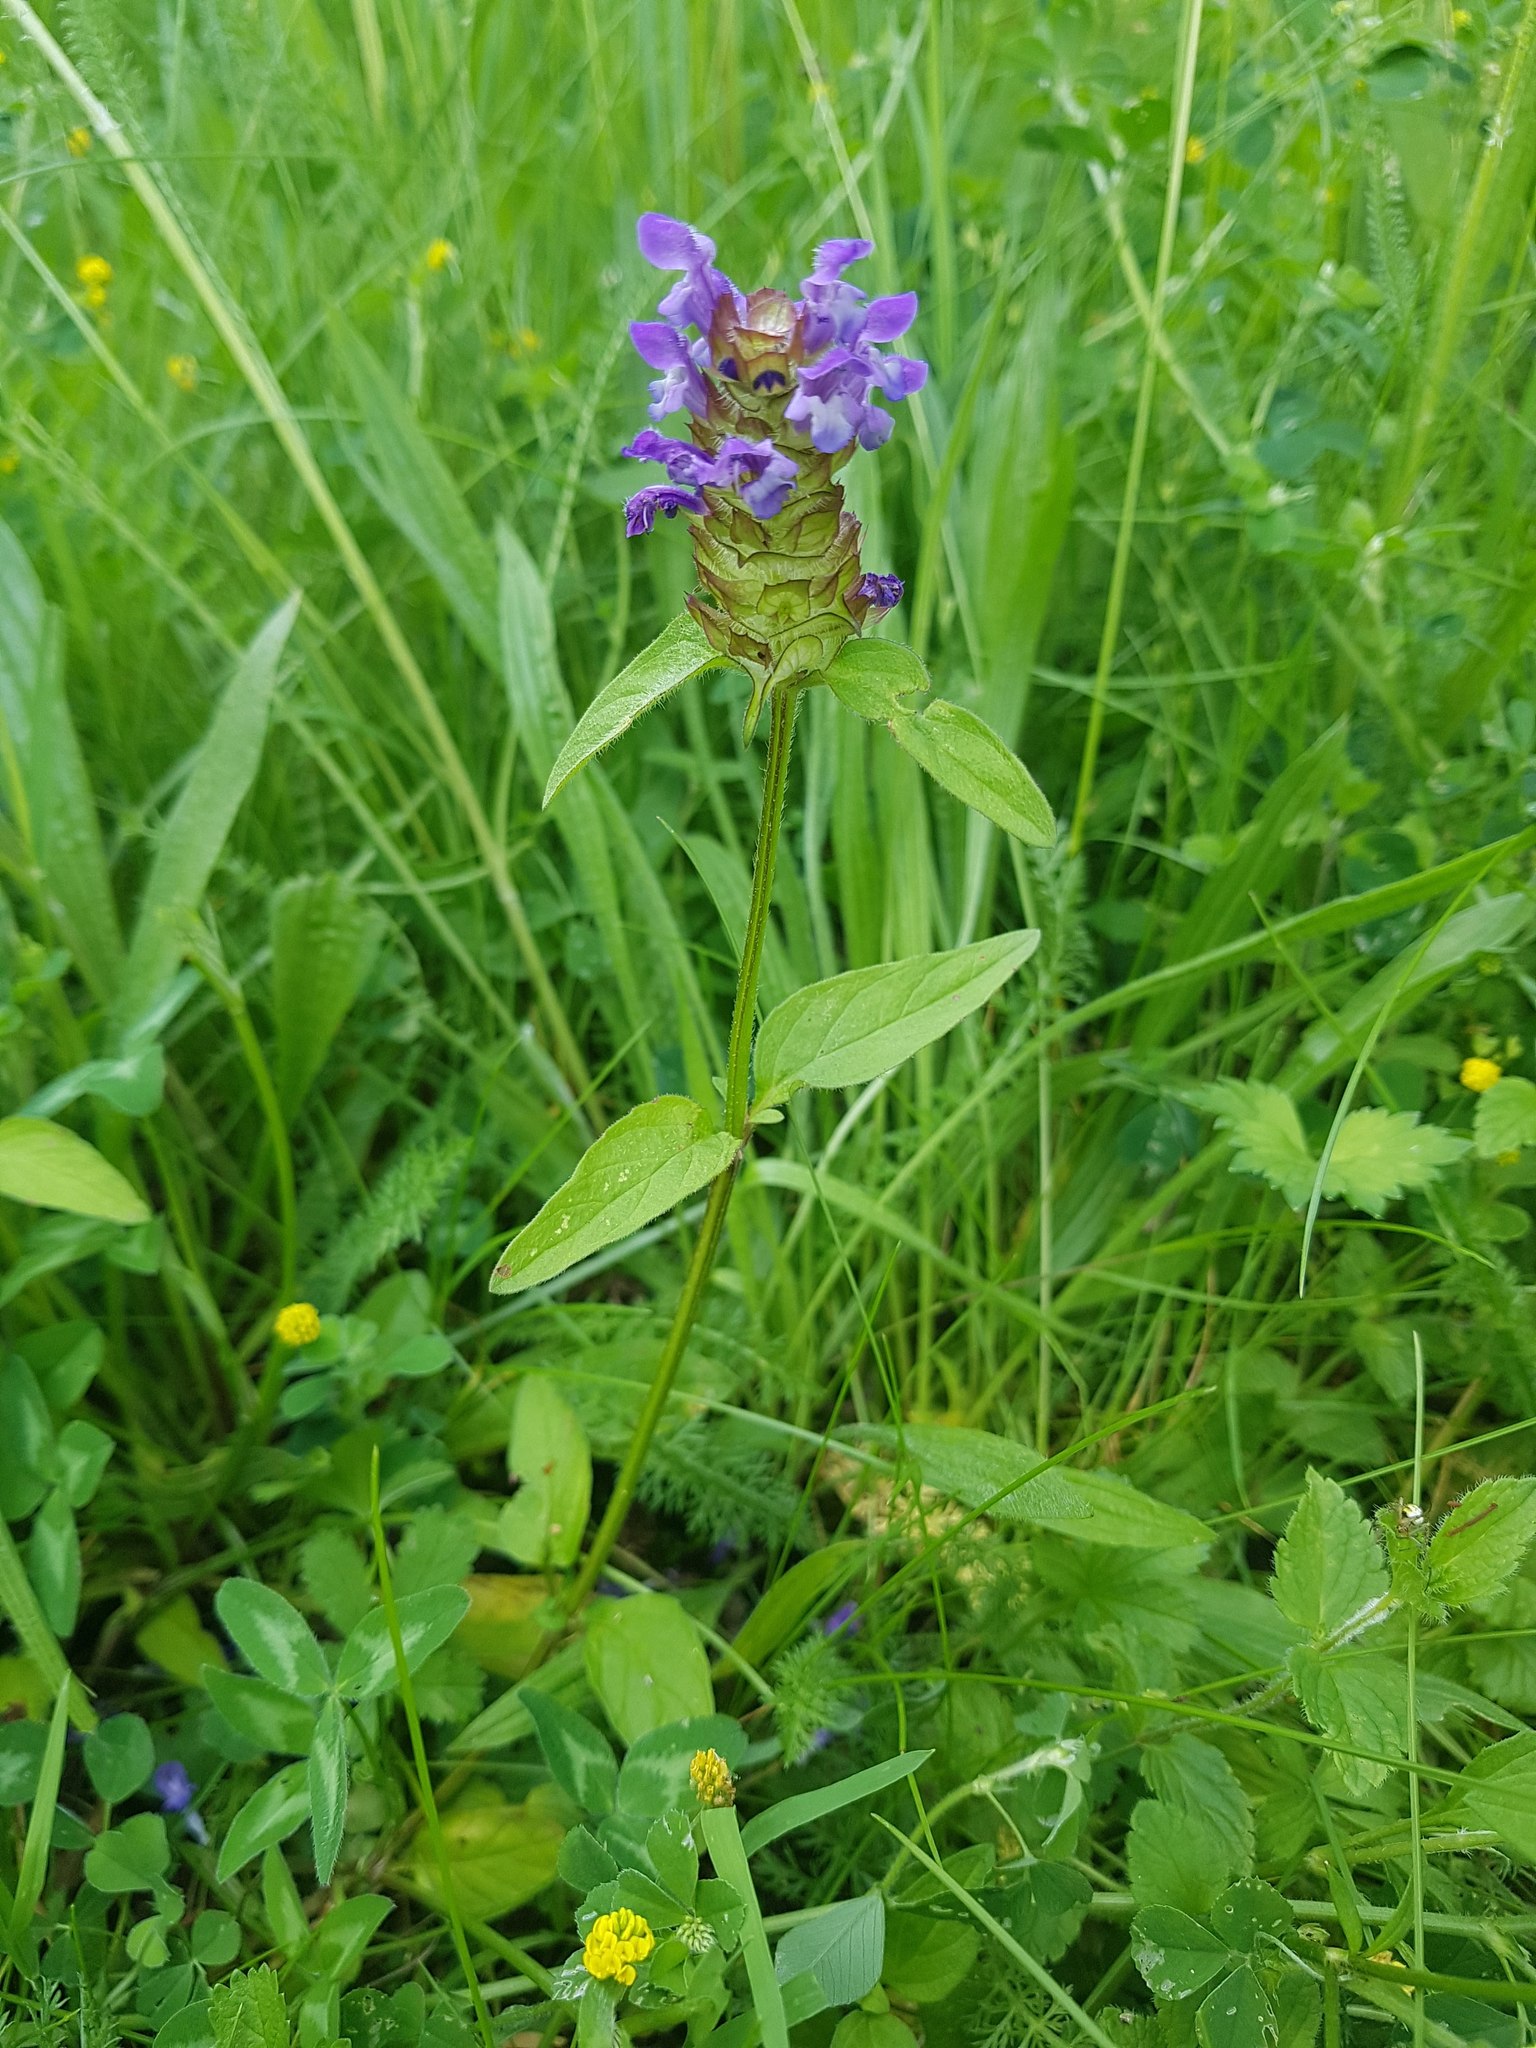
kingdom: Plantae
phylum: Tracheophyta
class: Magnoliopsida
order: Lamiales
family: Lamiaceae
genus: Prunella
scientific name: Prunella vulgaris
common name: Heal-all
